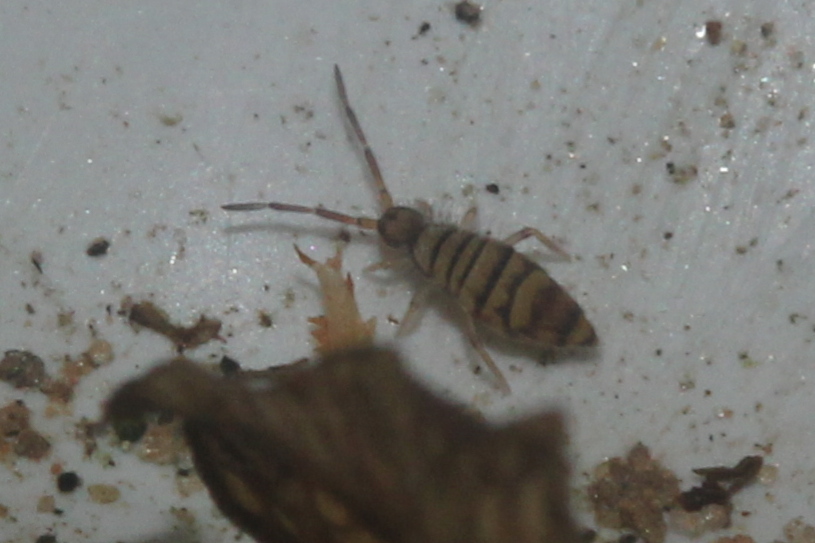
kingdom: Animalia
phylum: Arthropoda
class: Collembola
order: Entomobryomorpha
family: Entomobryidae
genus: Entomobrya
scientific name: Entomobrya atrocincta
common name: Springtail
